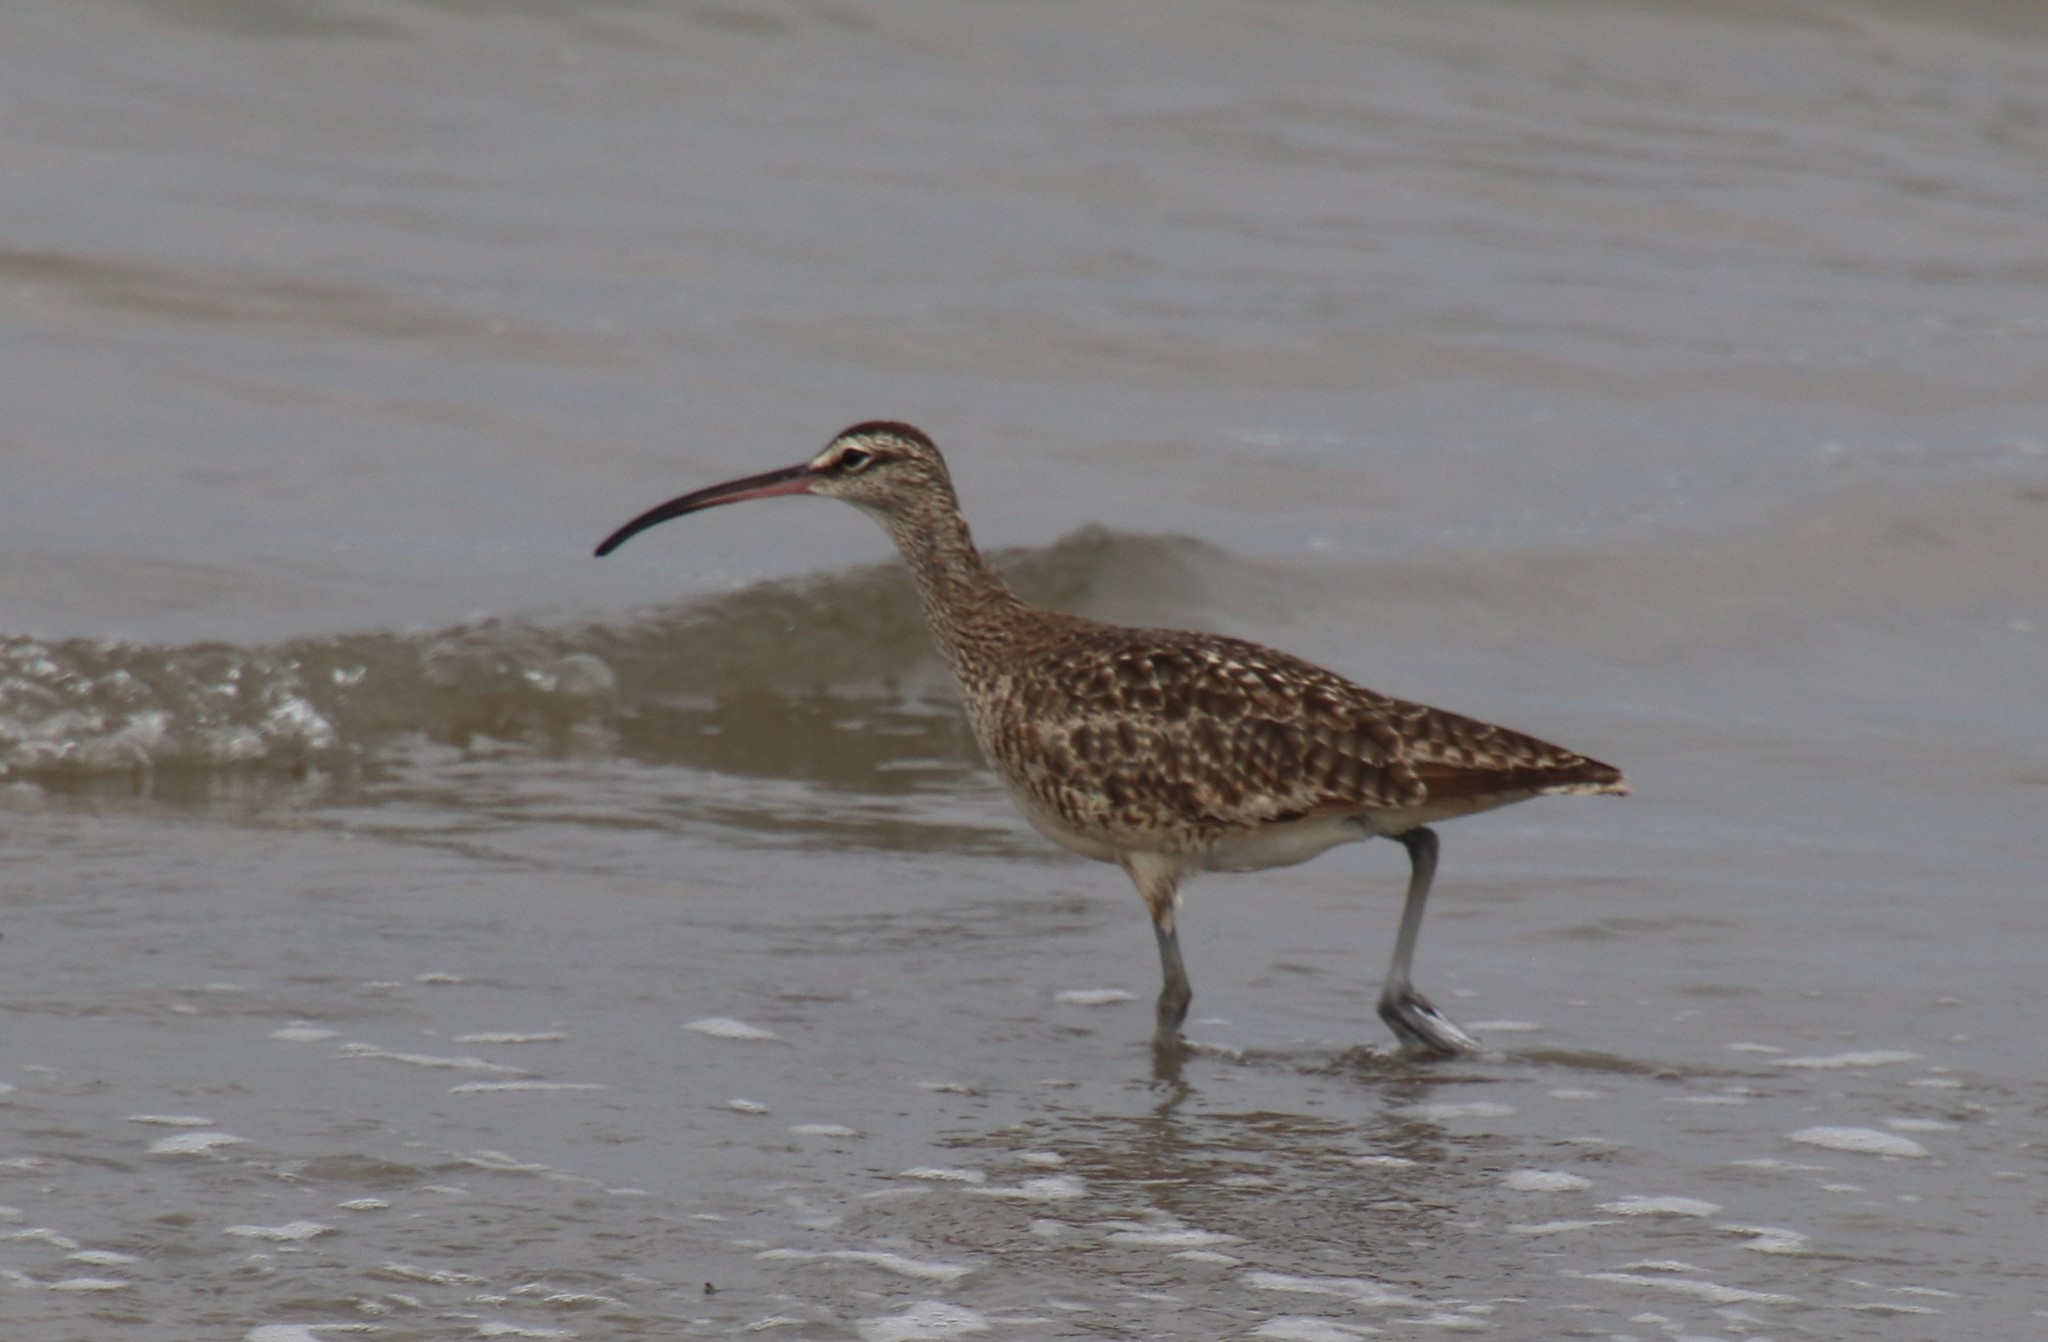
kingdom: Animalia
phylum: Chordata
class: Aves
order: Charadriiformes
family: Scolopacidae
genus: Numenius
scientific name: Numenius phaeopus
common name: Whimbrel
